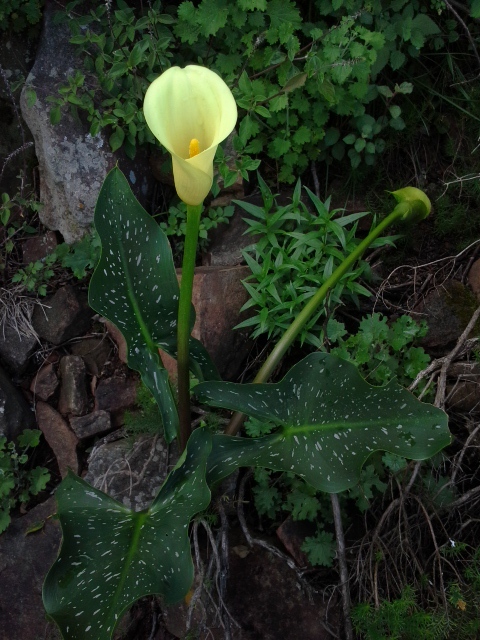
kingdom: Plantae
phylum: Tracheophyta
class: Liliopsida
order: Alismatales
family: Araceae
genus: Zantedeschia
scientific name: Zantedeschia albomaculata
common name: Spotted calla lily
